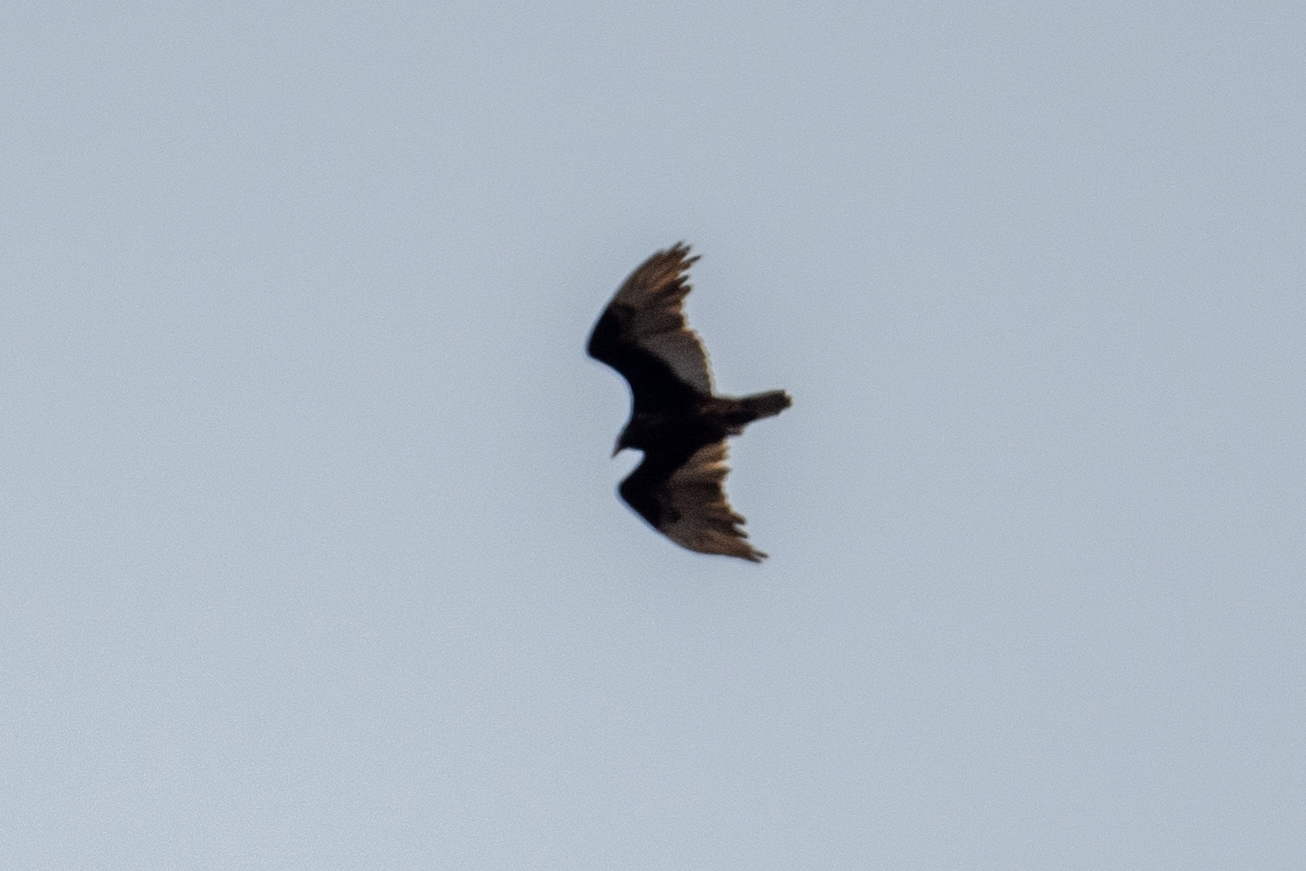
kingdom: Animalia
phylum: Chordata
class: Aves
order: Accipitriformes
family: Cathartidae
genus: Cathartes
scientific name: Cathartes aura
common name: Turkey vulture
